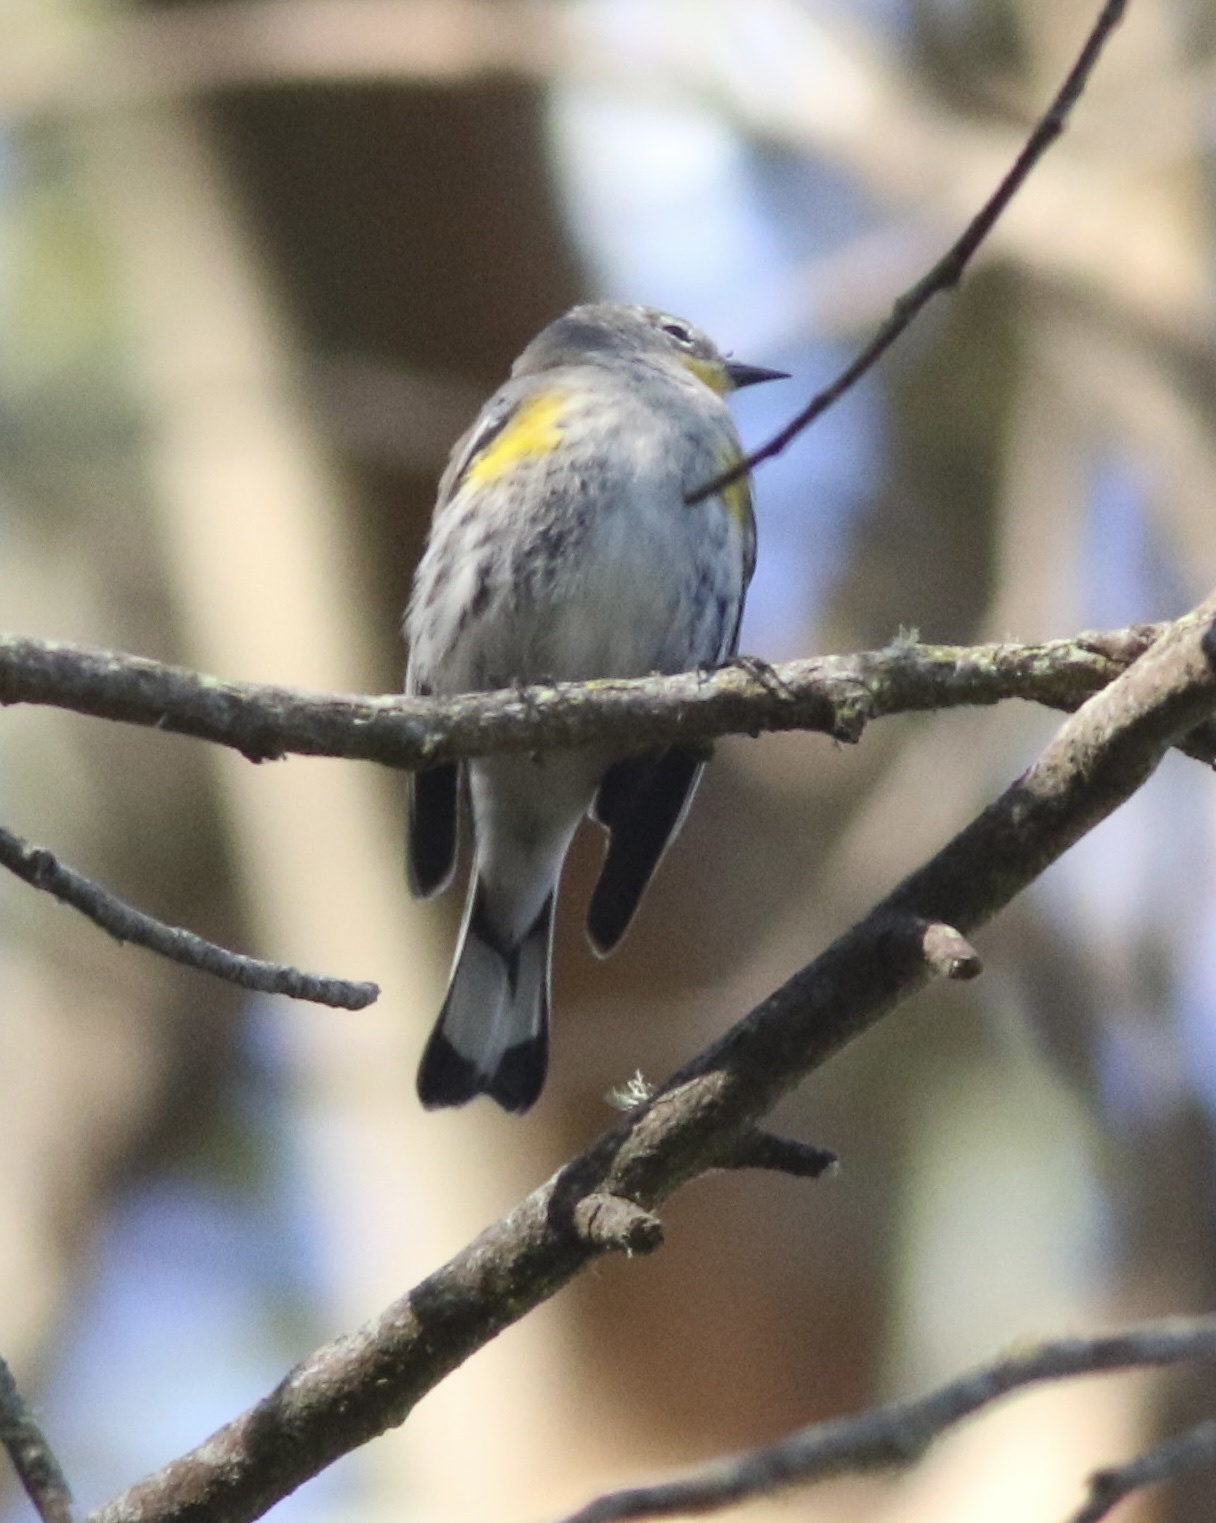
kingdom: Animalia
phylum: Chordata
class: Aves
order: Passeriformes
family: Parulidae
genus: Setophaga
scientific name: Setophaga coronata
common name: Myrtle warbler
